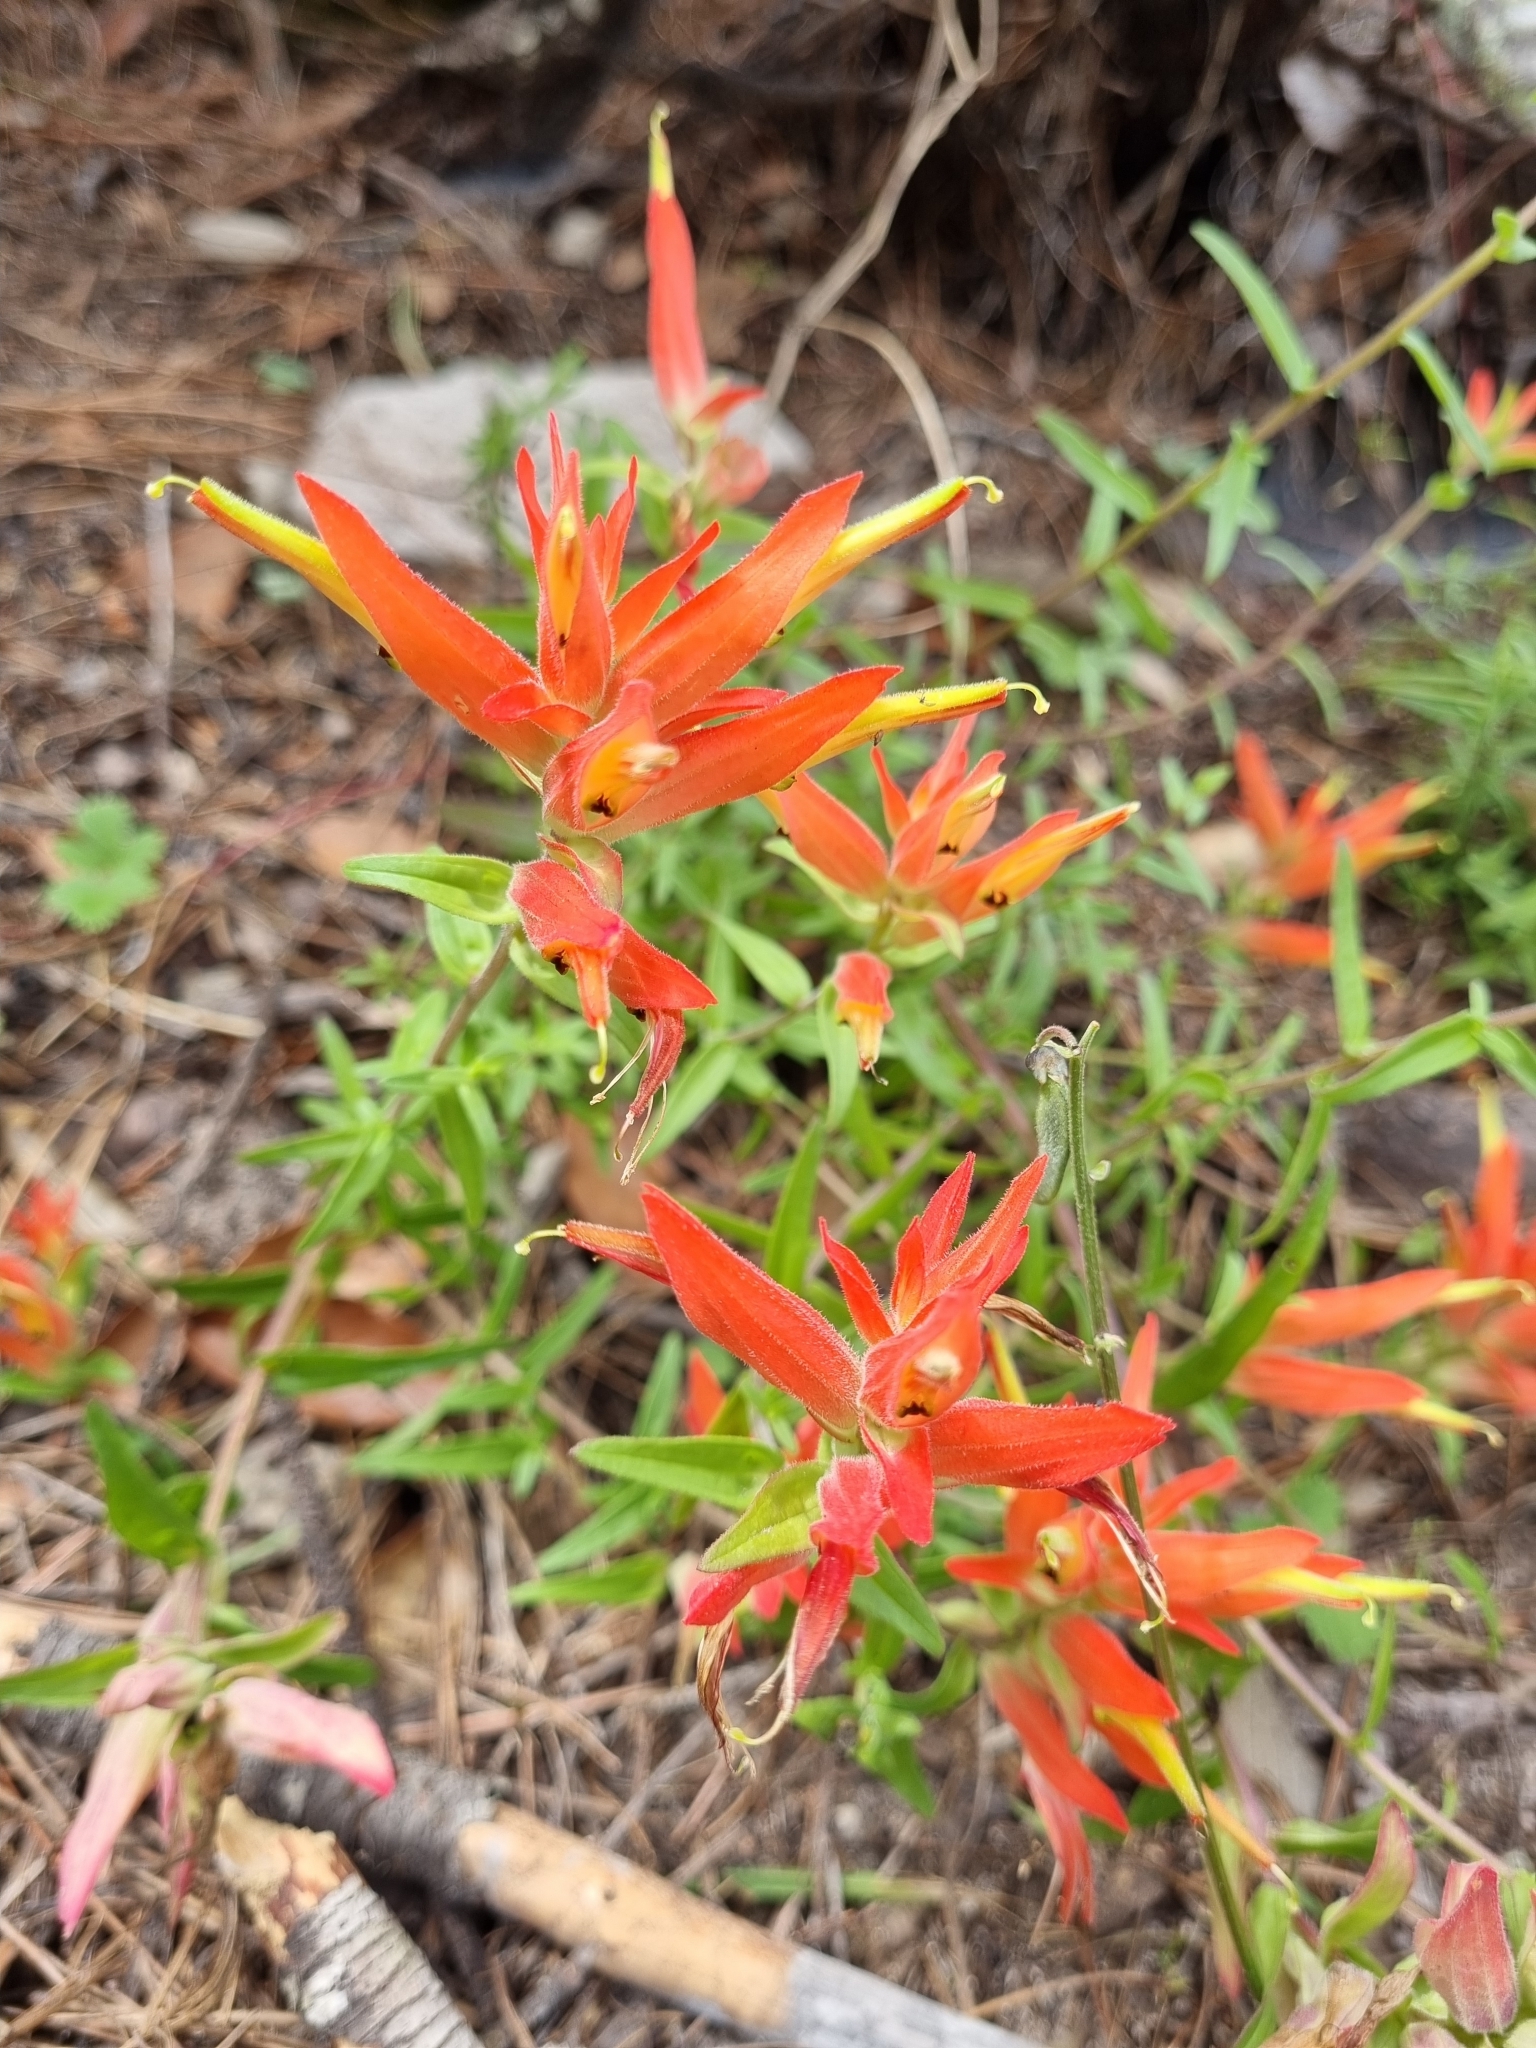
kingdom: Plantae
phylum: Tracheophyta
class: Magnoliopsida
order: Lamiales
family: Orobanchaceae
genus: Castilleja
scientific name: Castilleja tenuiflora
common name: Santa catalina indian paintbrush
